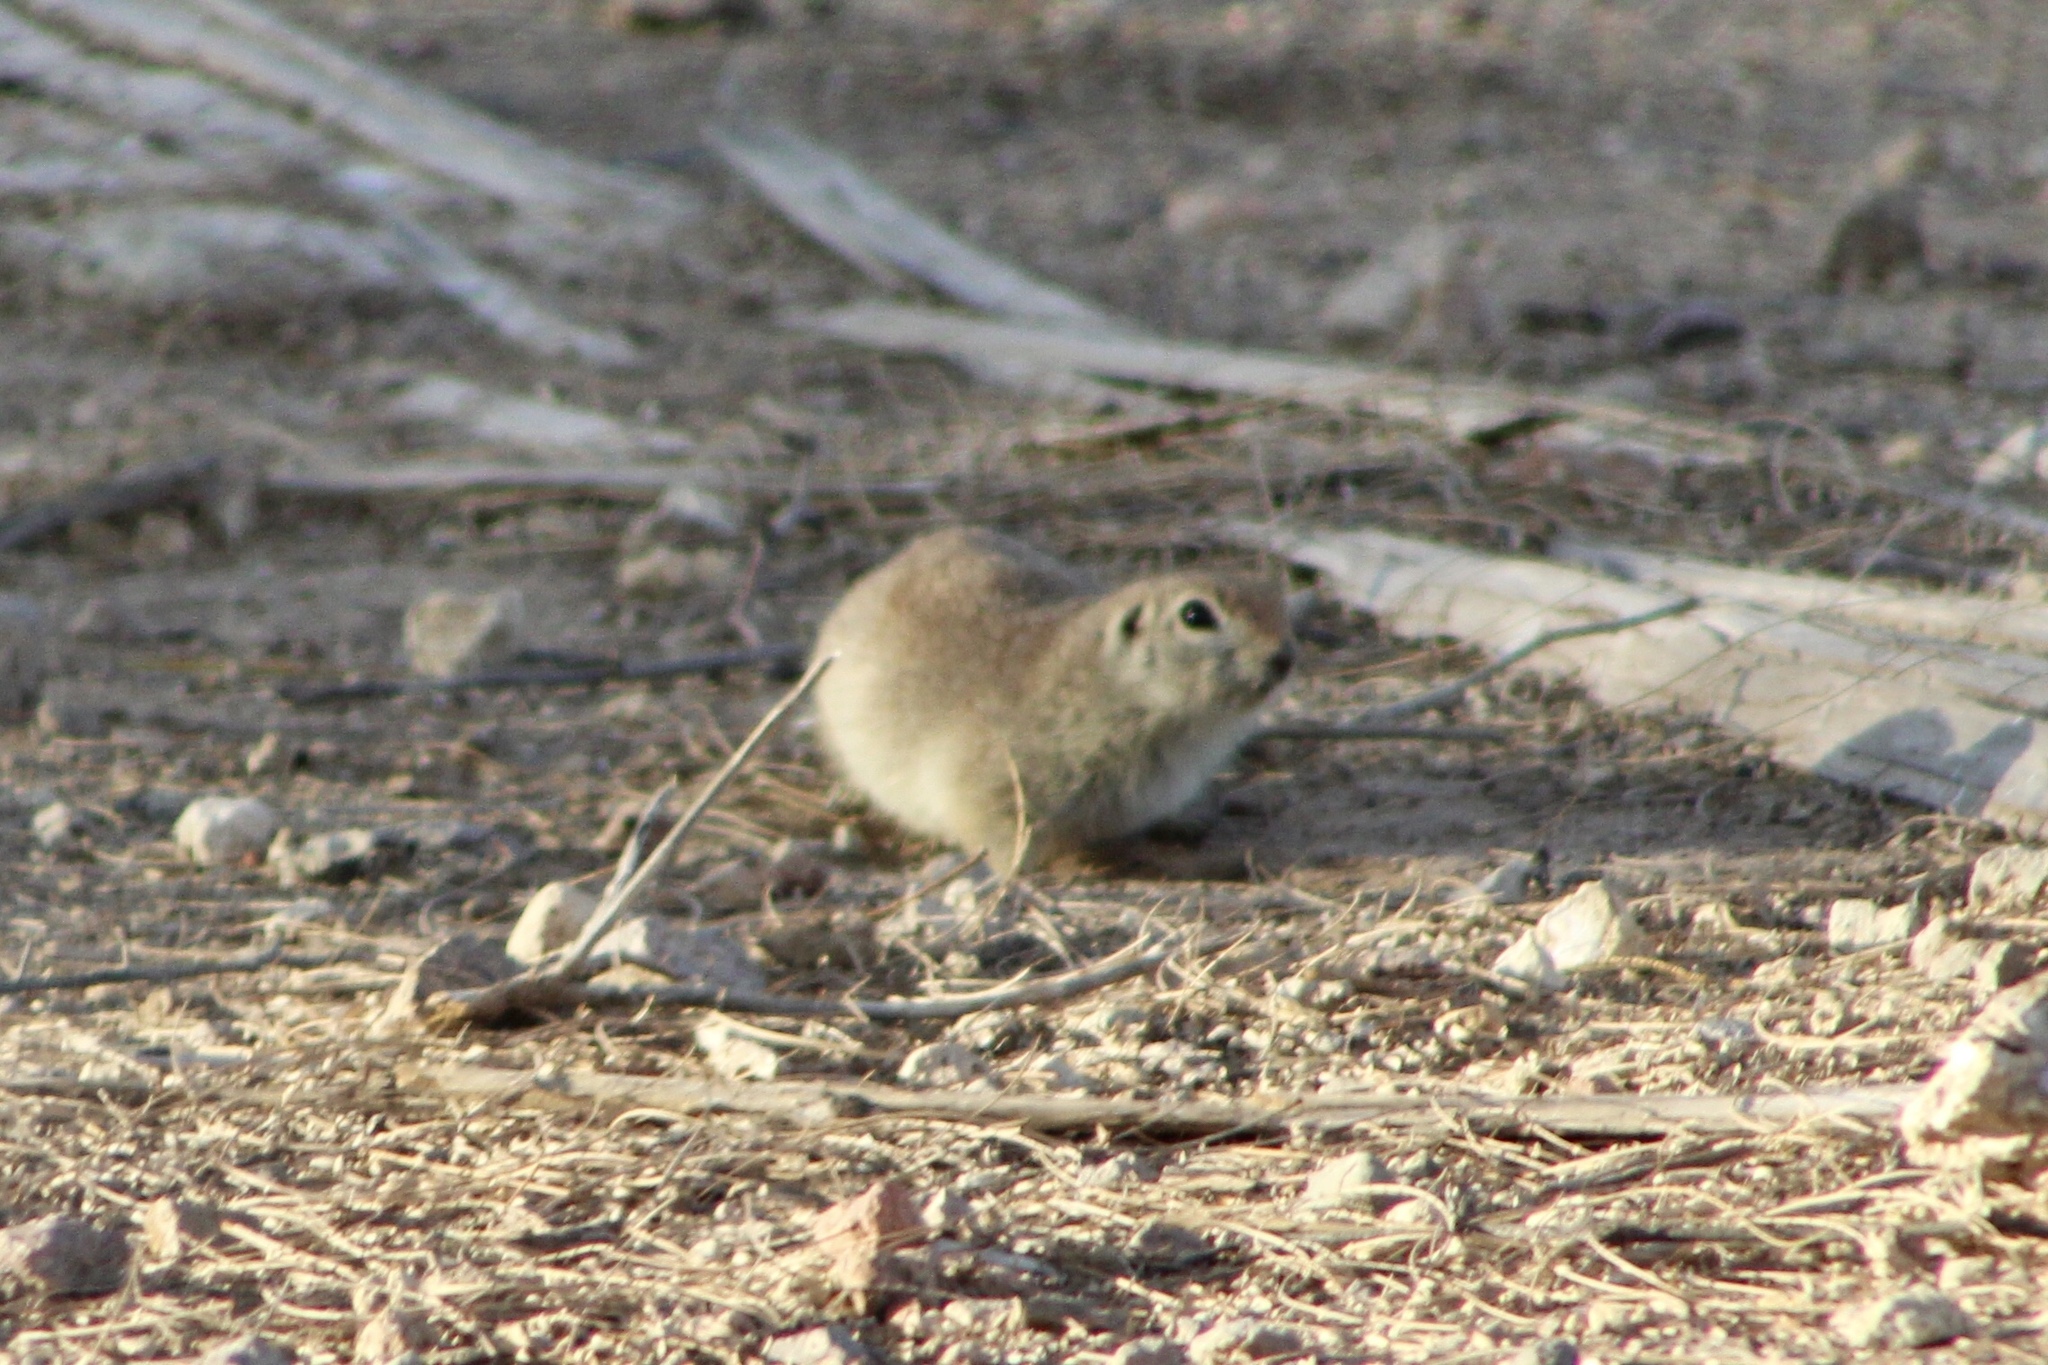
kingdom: Animalia
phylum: Chordata
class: Mammalia
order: Rodentia
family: Sciuridae
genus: Xerospermophilus
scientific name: Xerospermophilus tereticaudus
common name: Round-tailed ground squirrel
